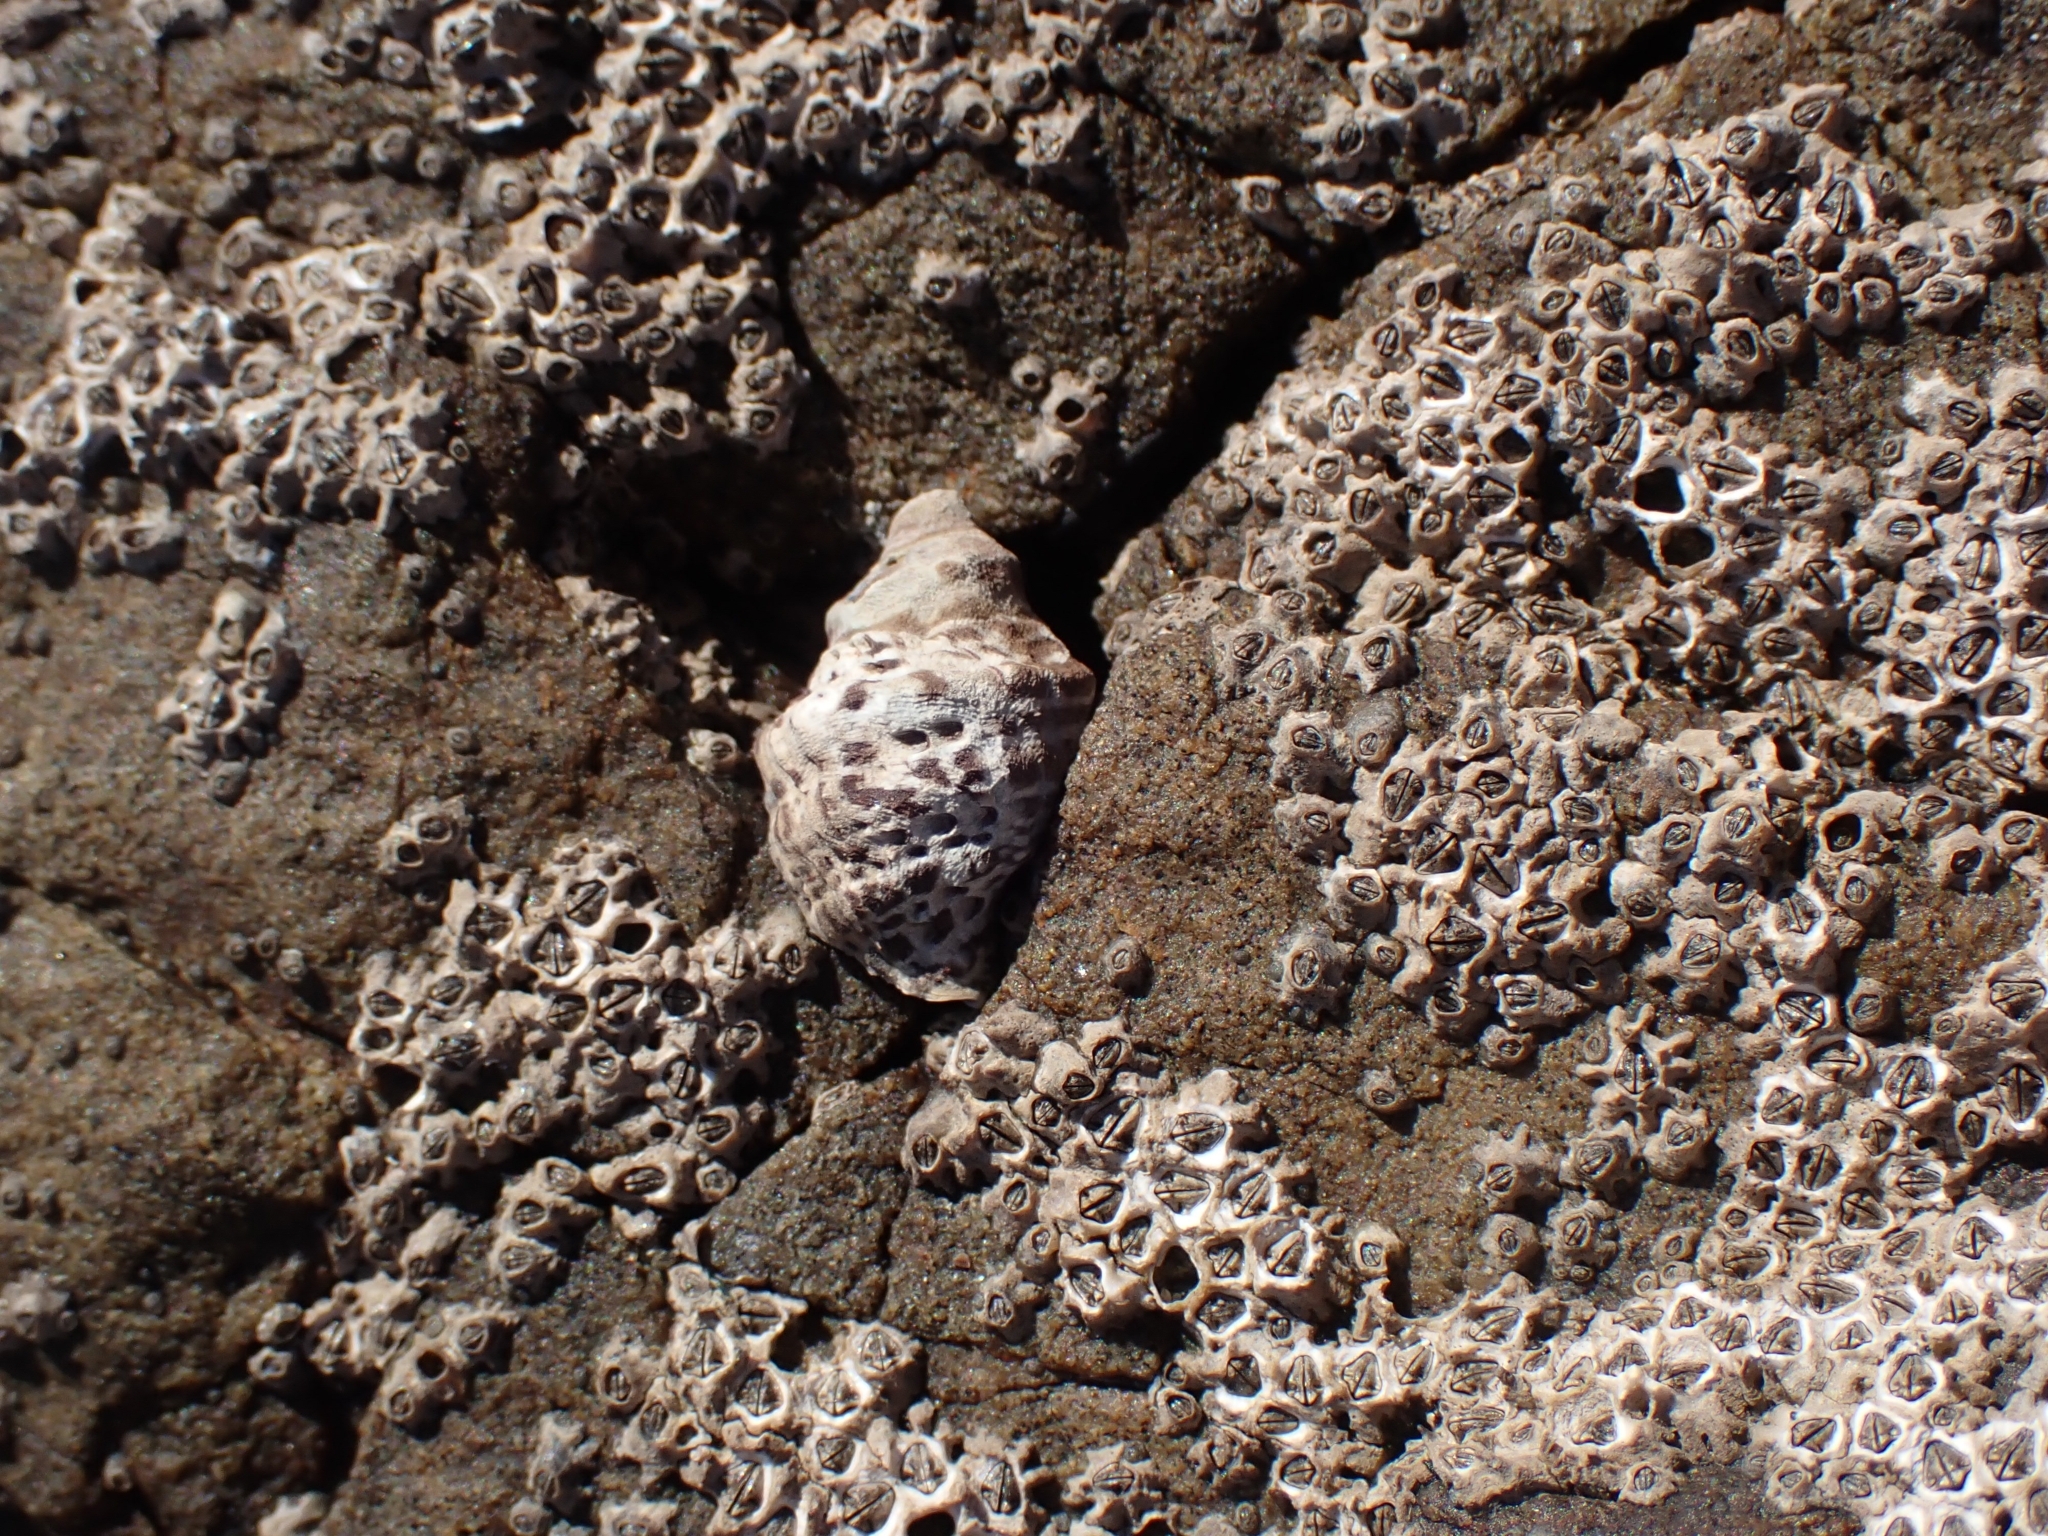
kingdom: Animalia
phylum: Mollusca
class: Gastropoda
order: Neogastropoda
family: Muricidae
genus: Haustrum
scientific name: Haustrum scobina
